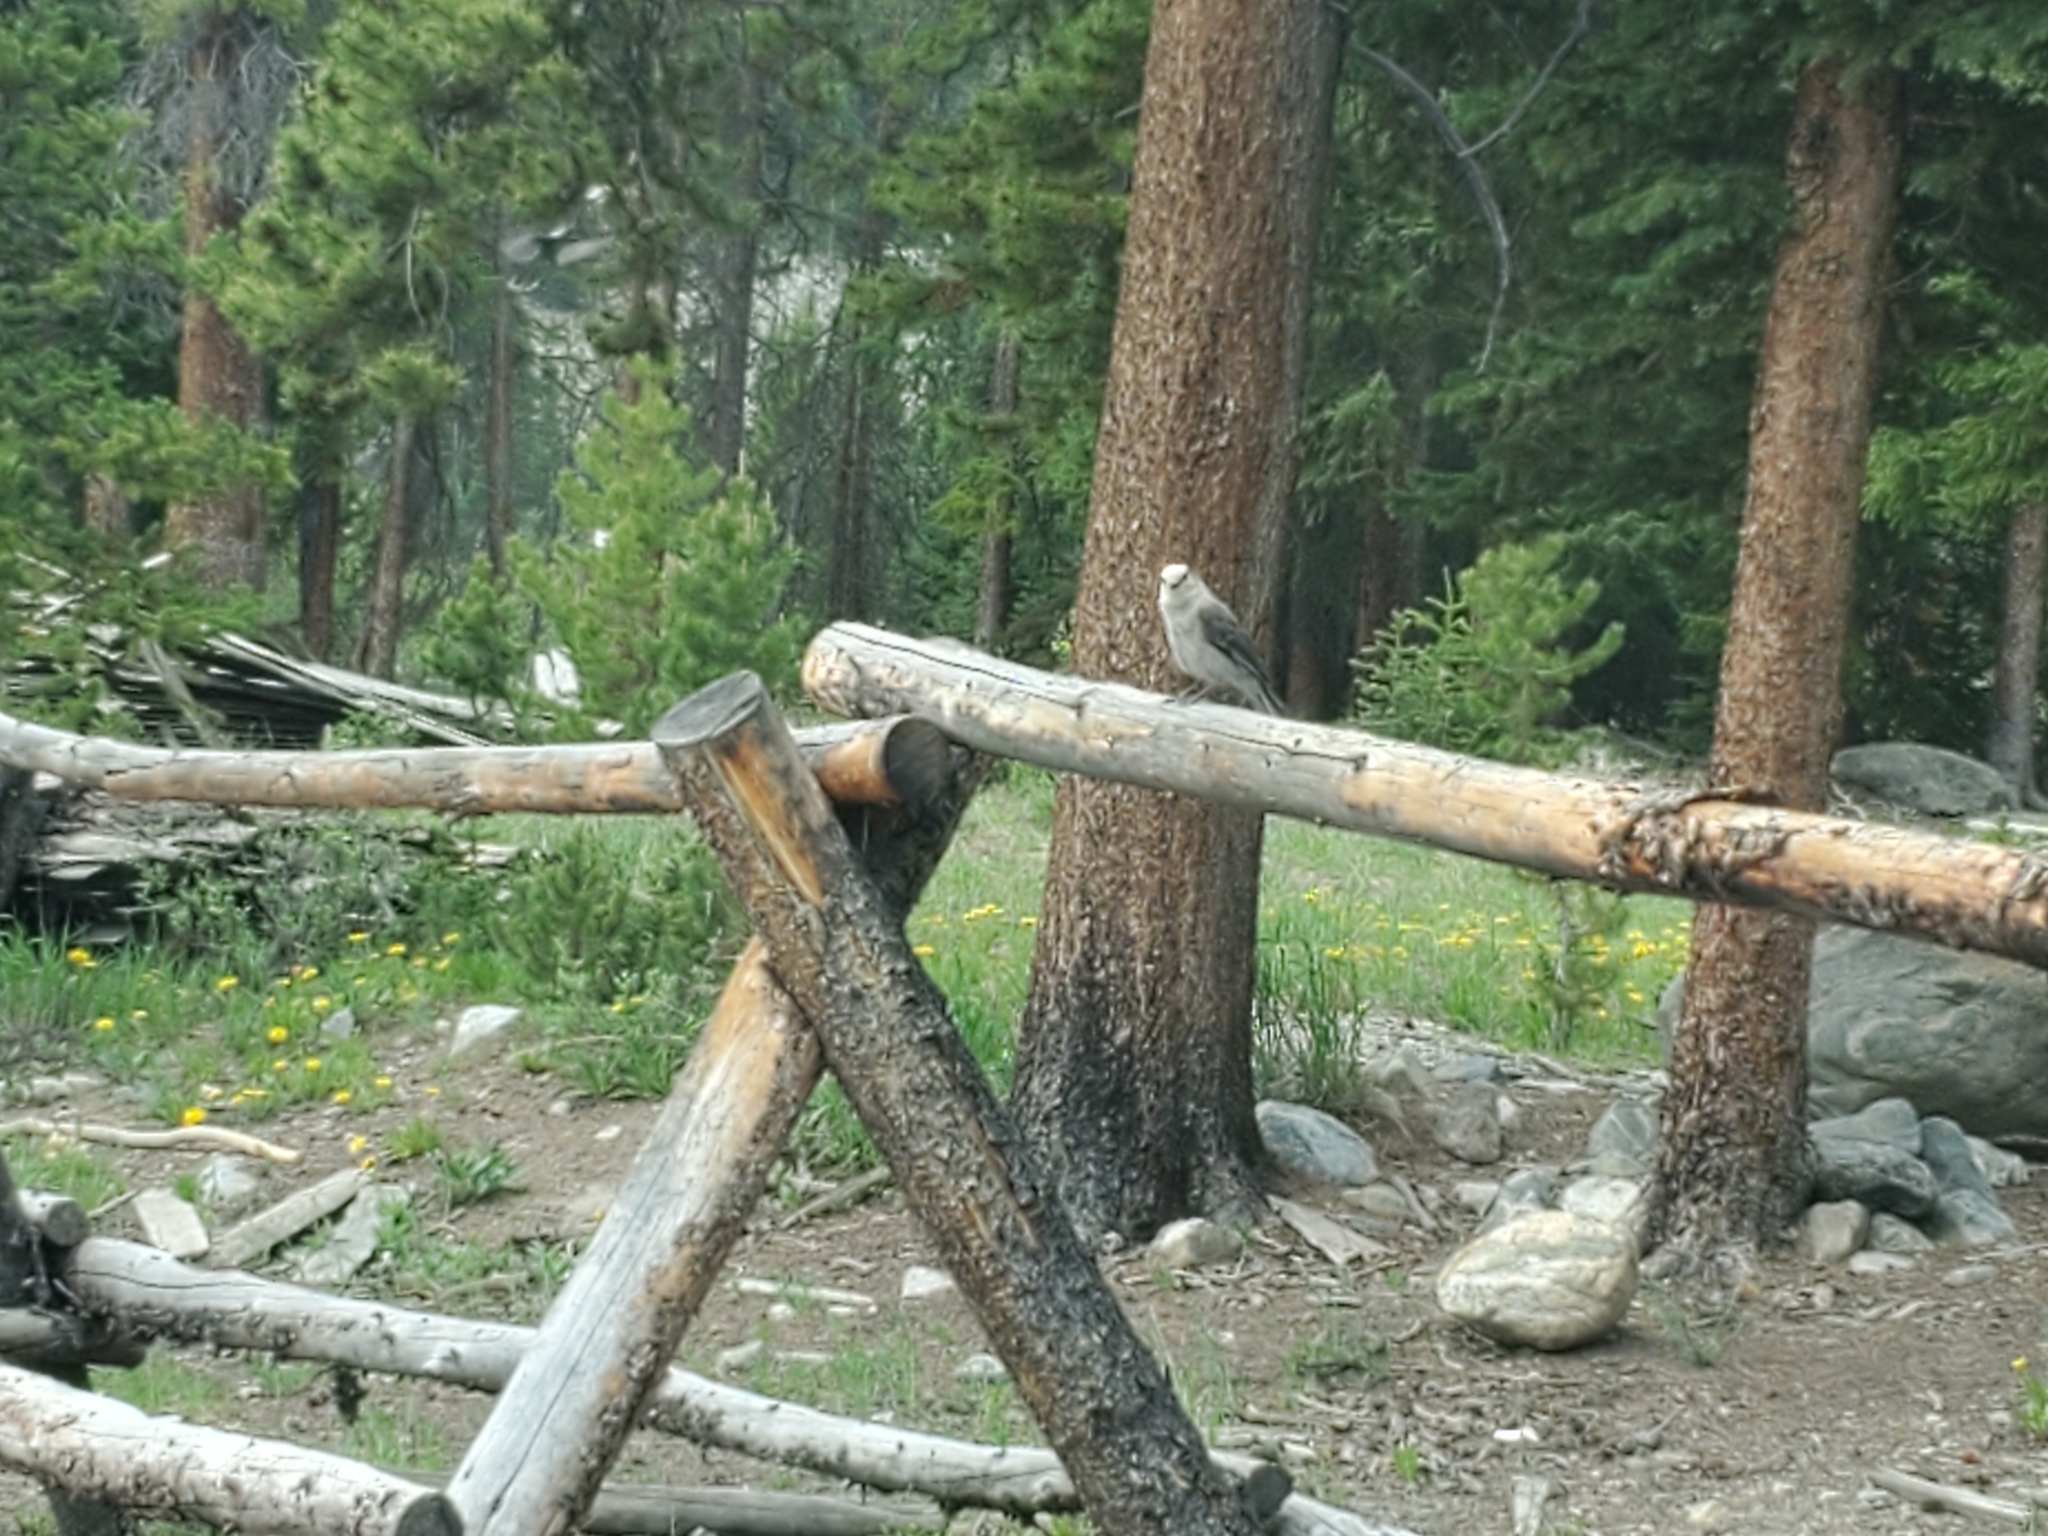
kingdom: Animalia
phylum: Chordata
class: Aves
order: Passeriformes
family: Corvidae
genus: Perisoreus
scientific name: Perisoreus canadensis
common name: Gray jay
